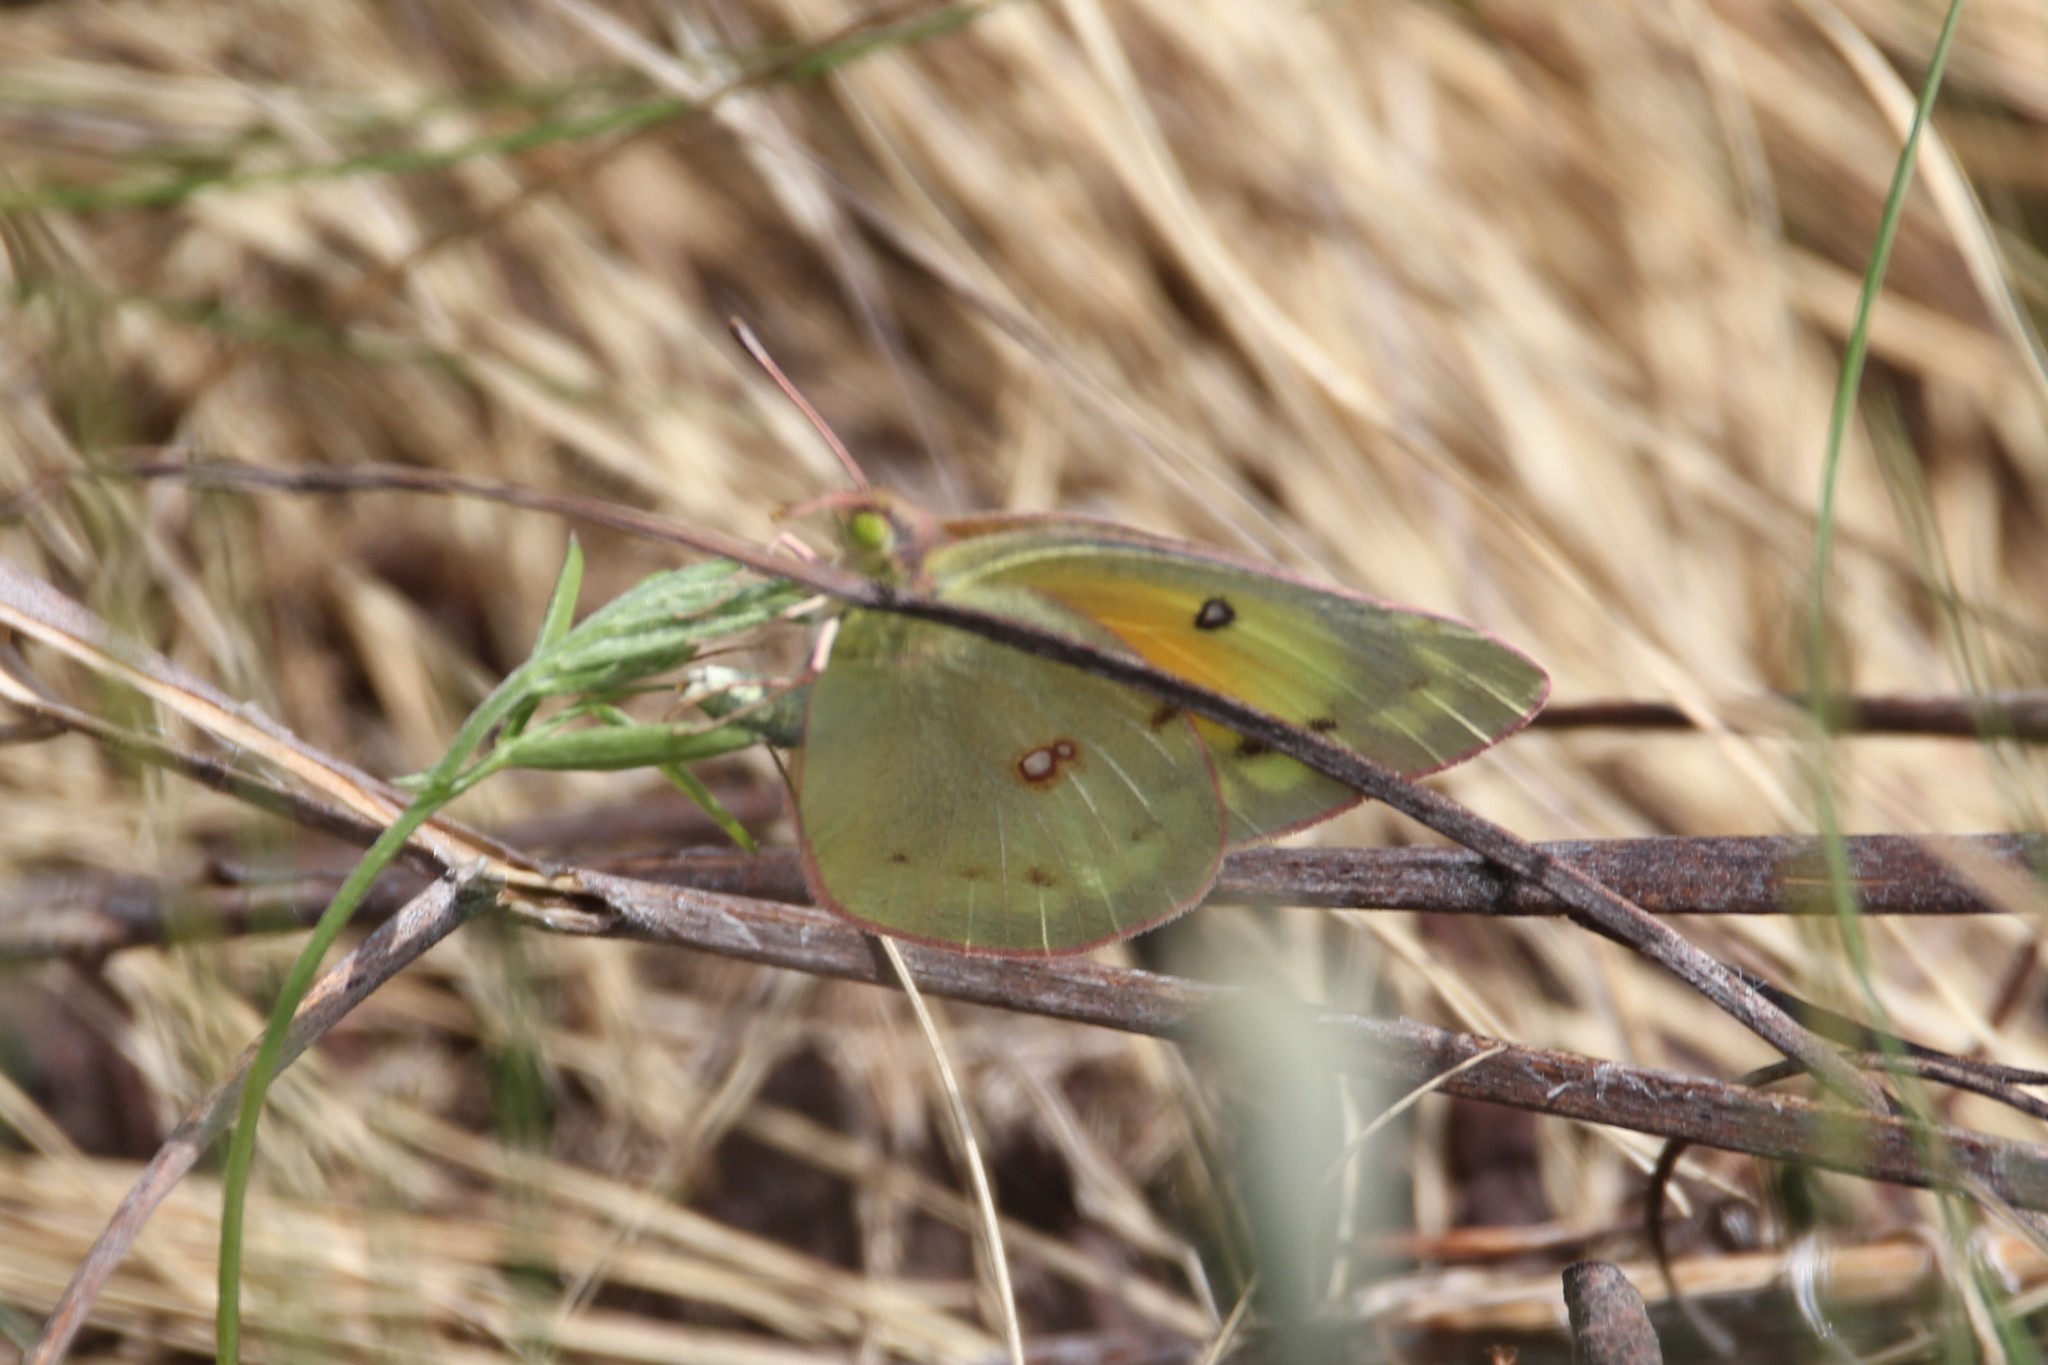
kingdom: Animalia
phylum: Arthropoda
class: Insecta
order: Lepidoptera
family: Pieridae
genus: Colias
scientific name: Colias philodice
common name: Clouded sulphur
